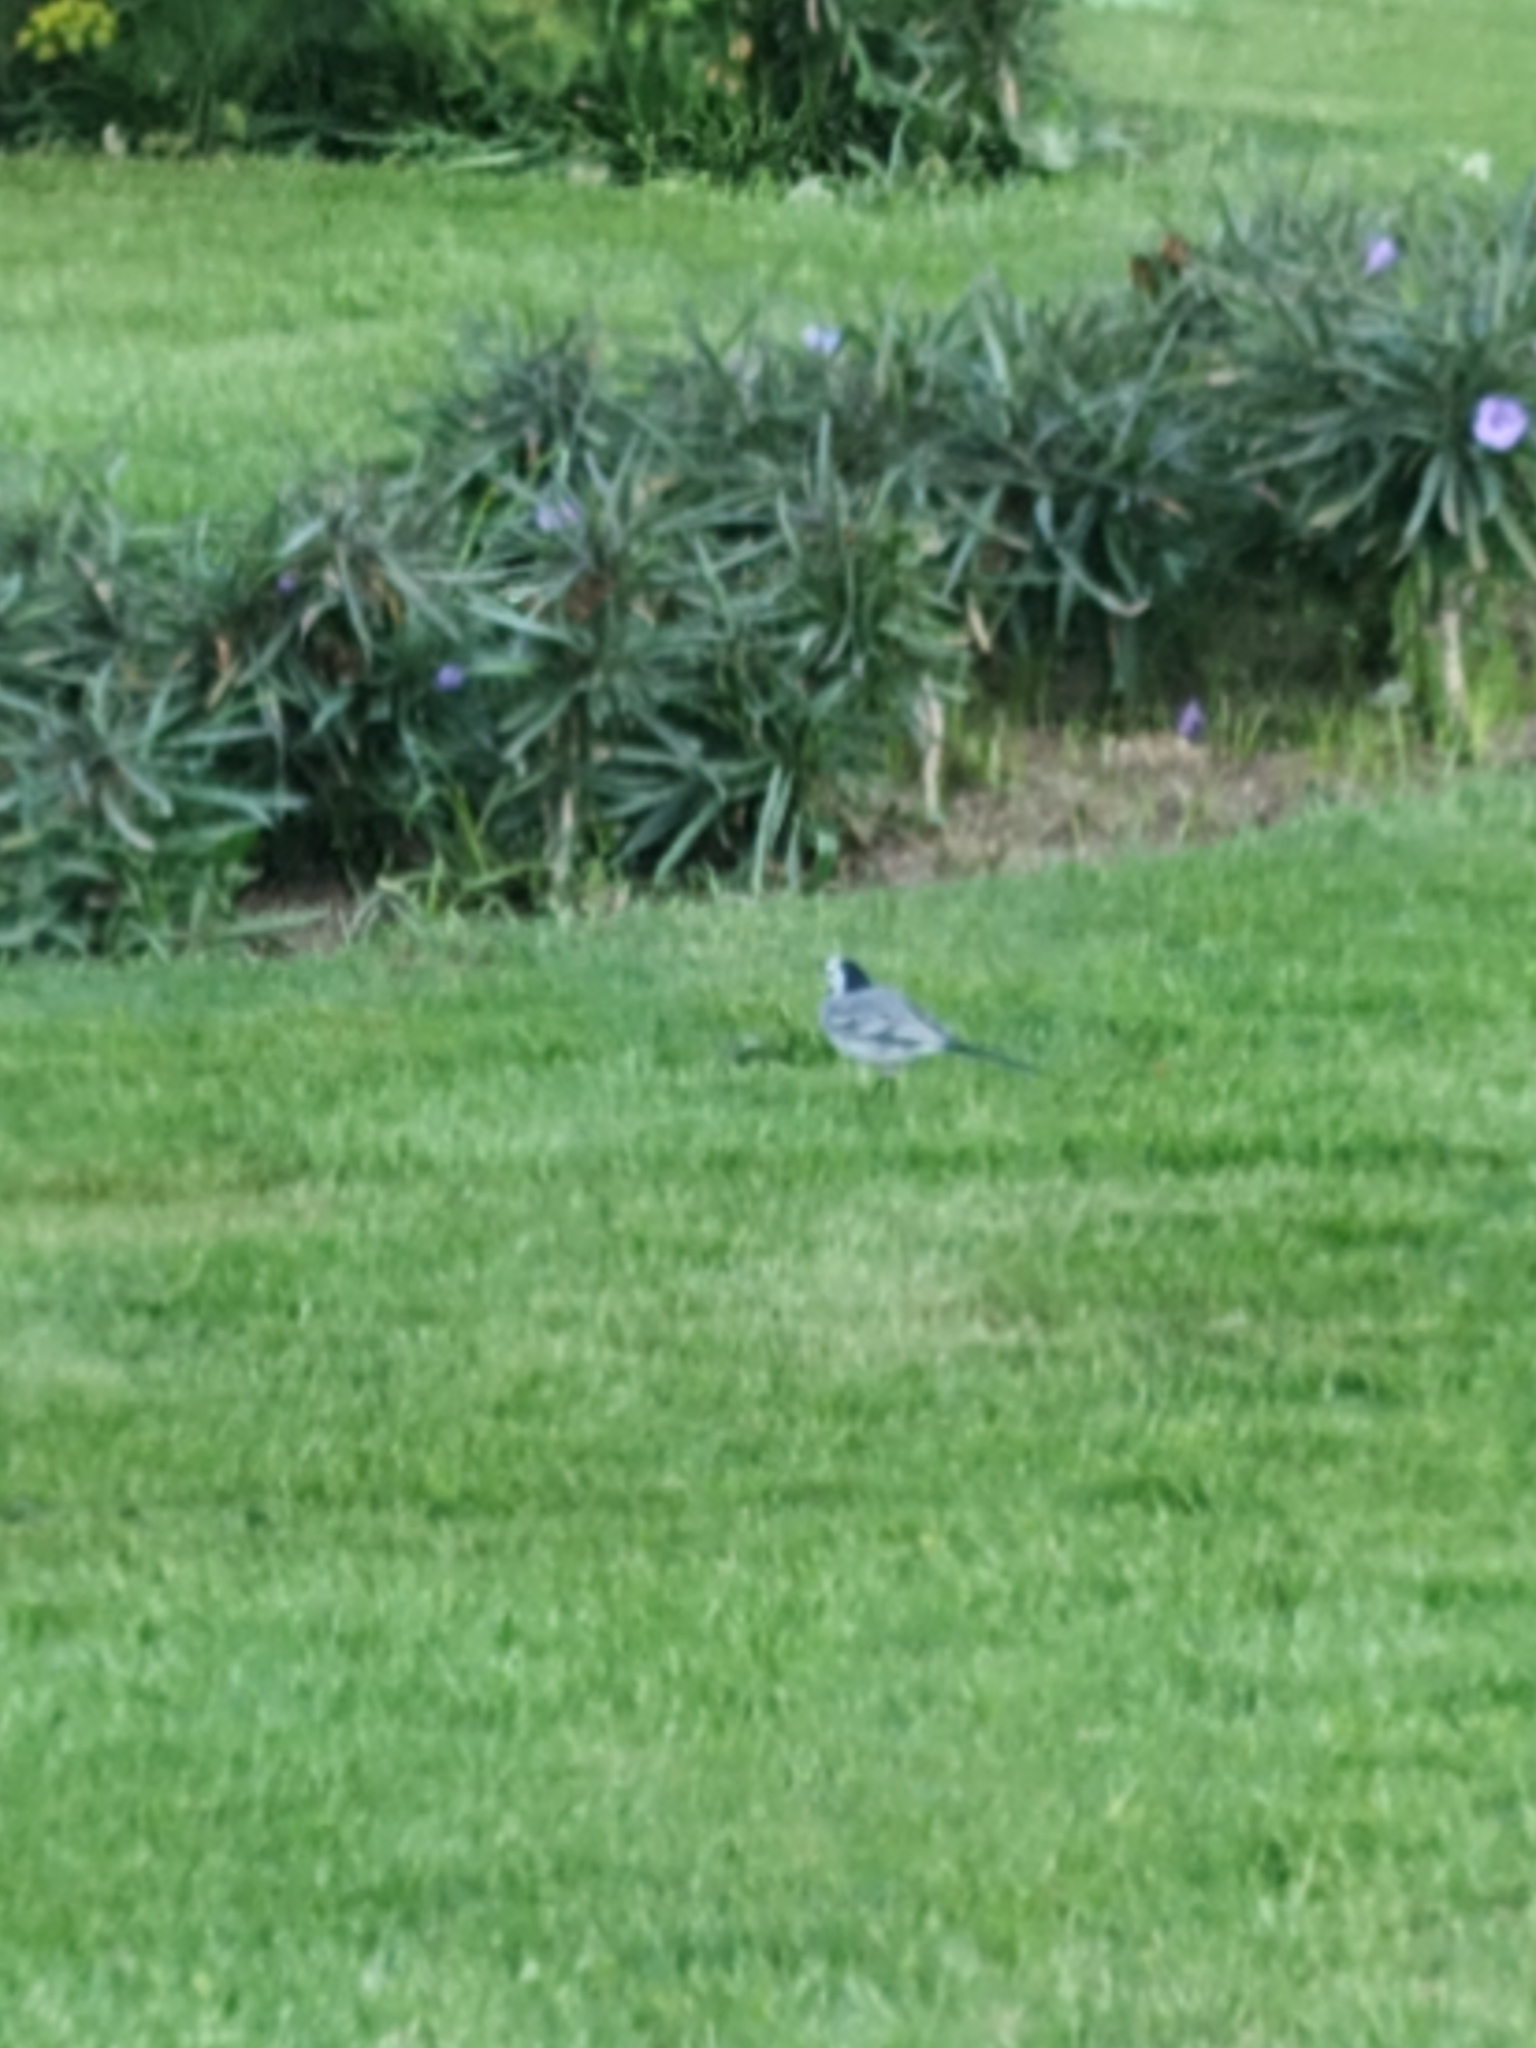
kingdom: Animalia
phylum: Chordata
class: Aves
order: Passeriformes
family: Motacillidae
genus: Motacilla
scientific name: Motacilla alba
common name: White wagtail
